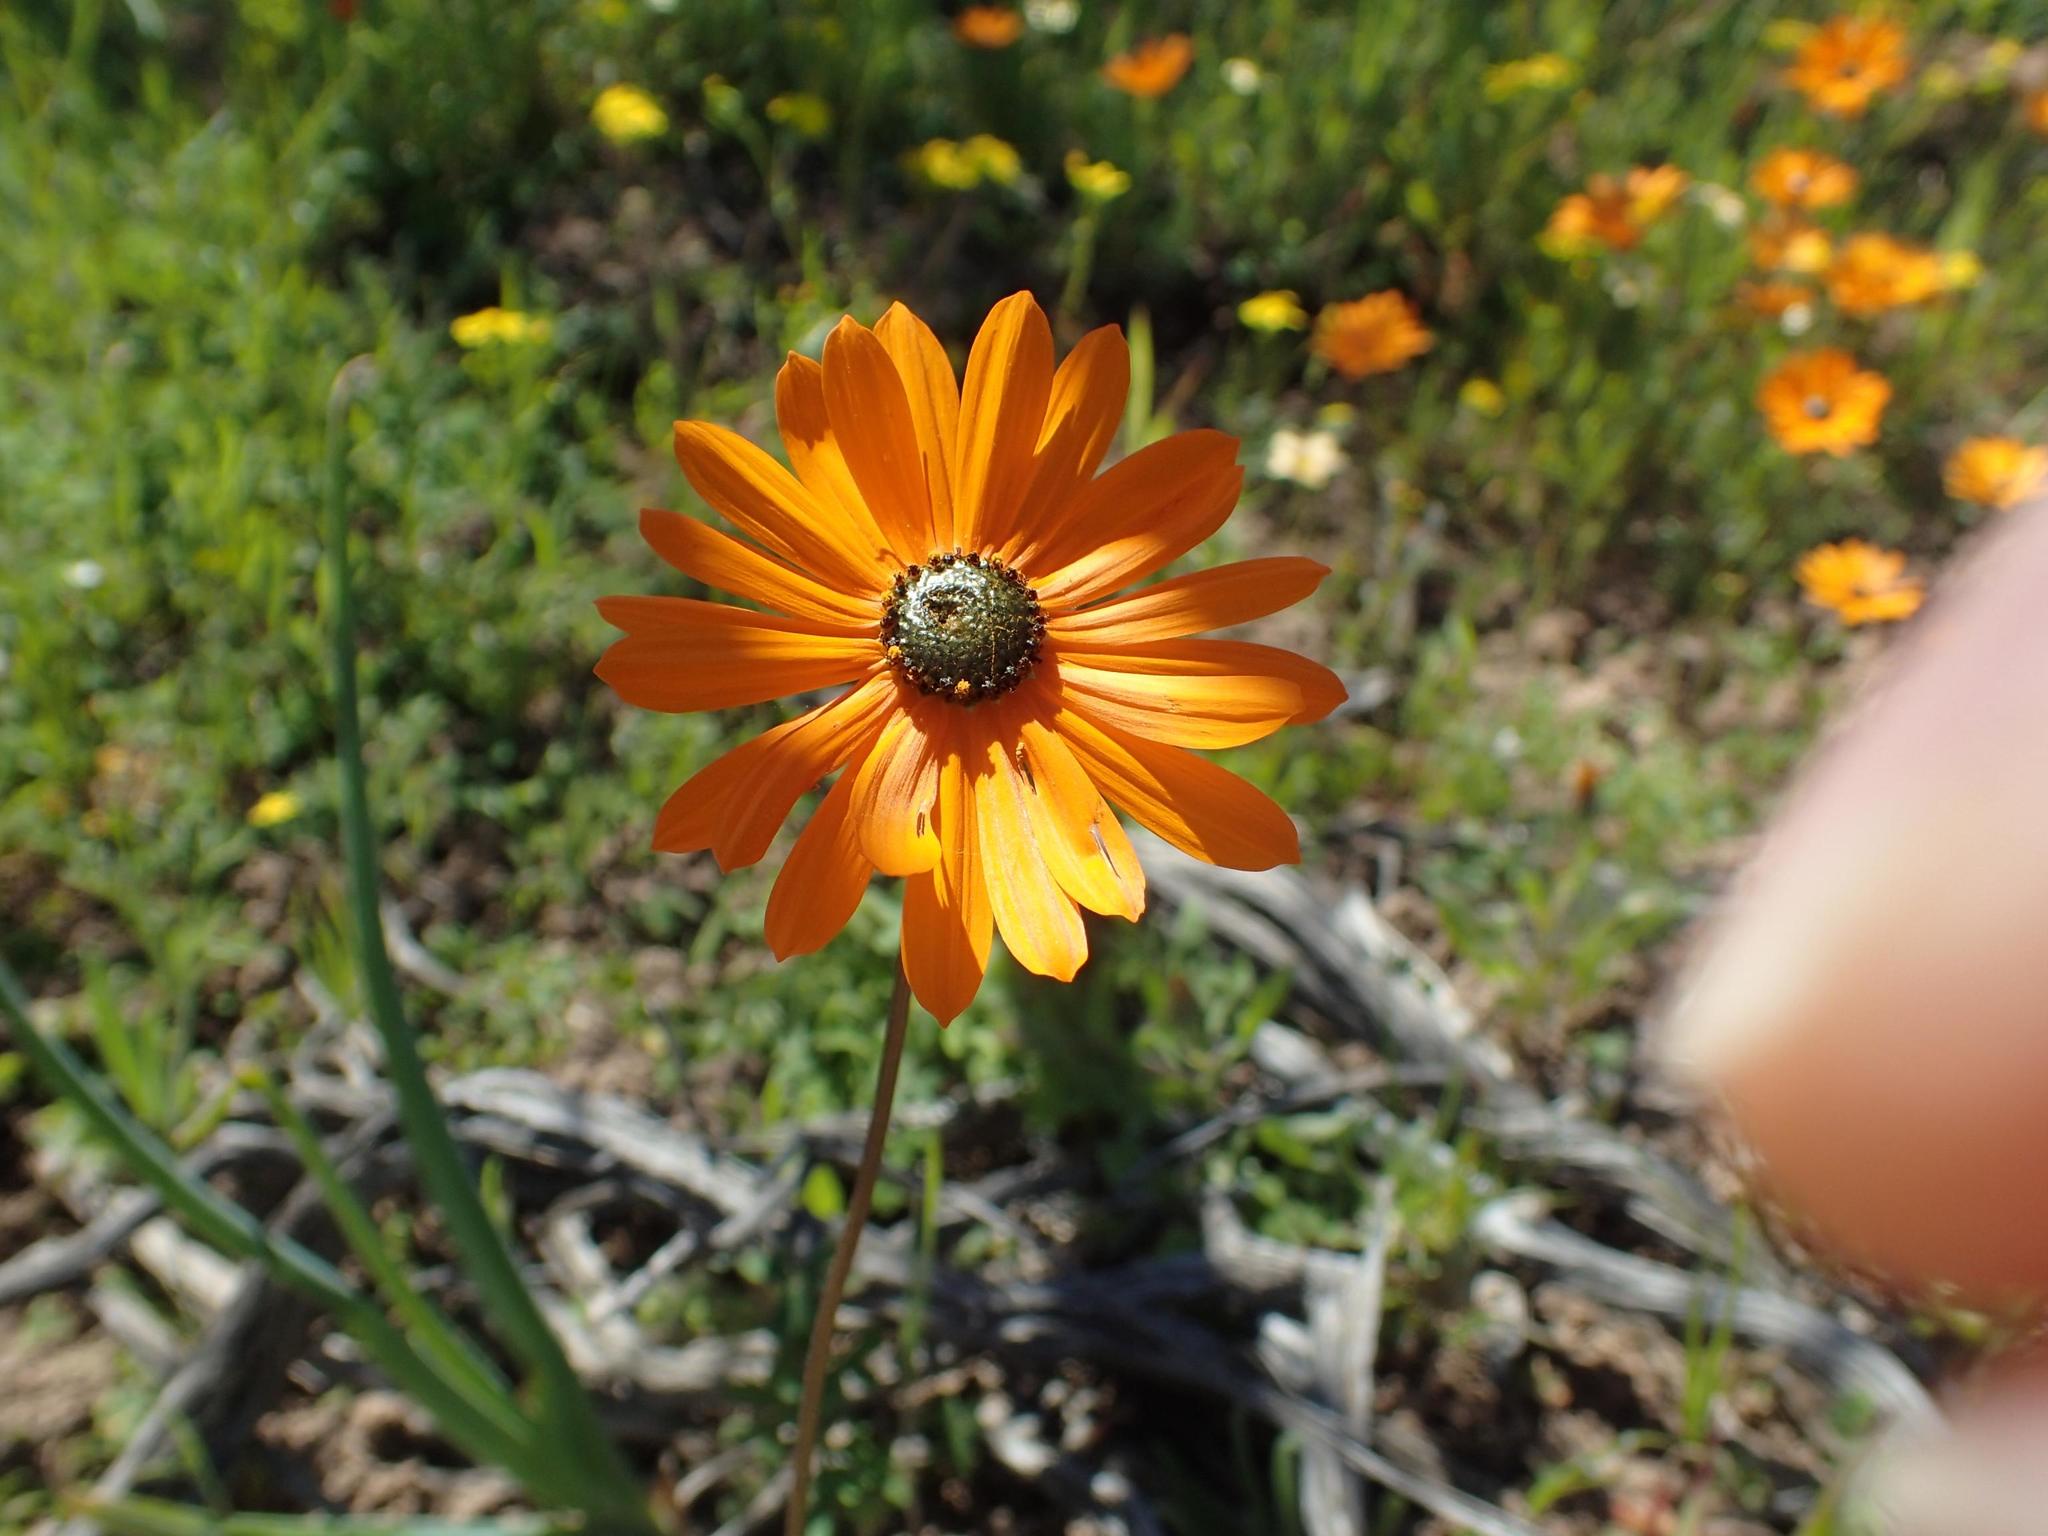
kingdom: Plantae
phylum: Tracheophyta
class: Magnoliopsida
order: Asterales
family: Asteraceae
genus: Ursinia
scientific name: Ursinia cakilefolia
